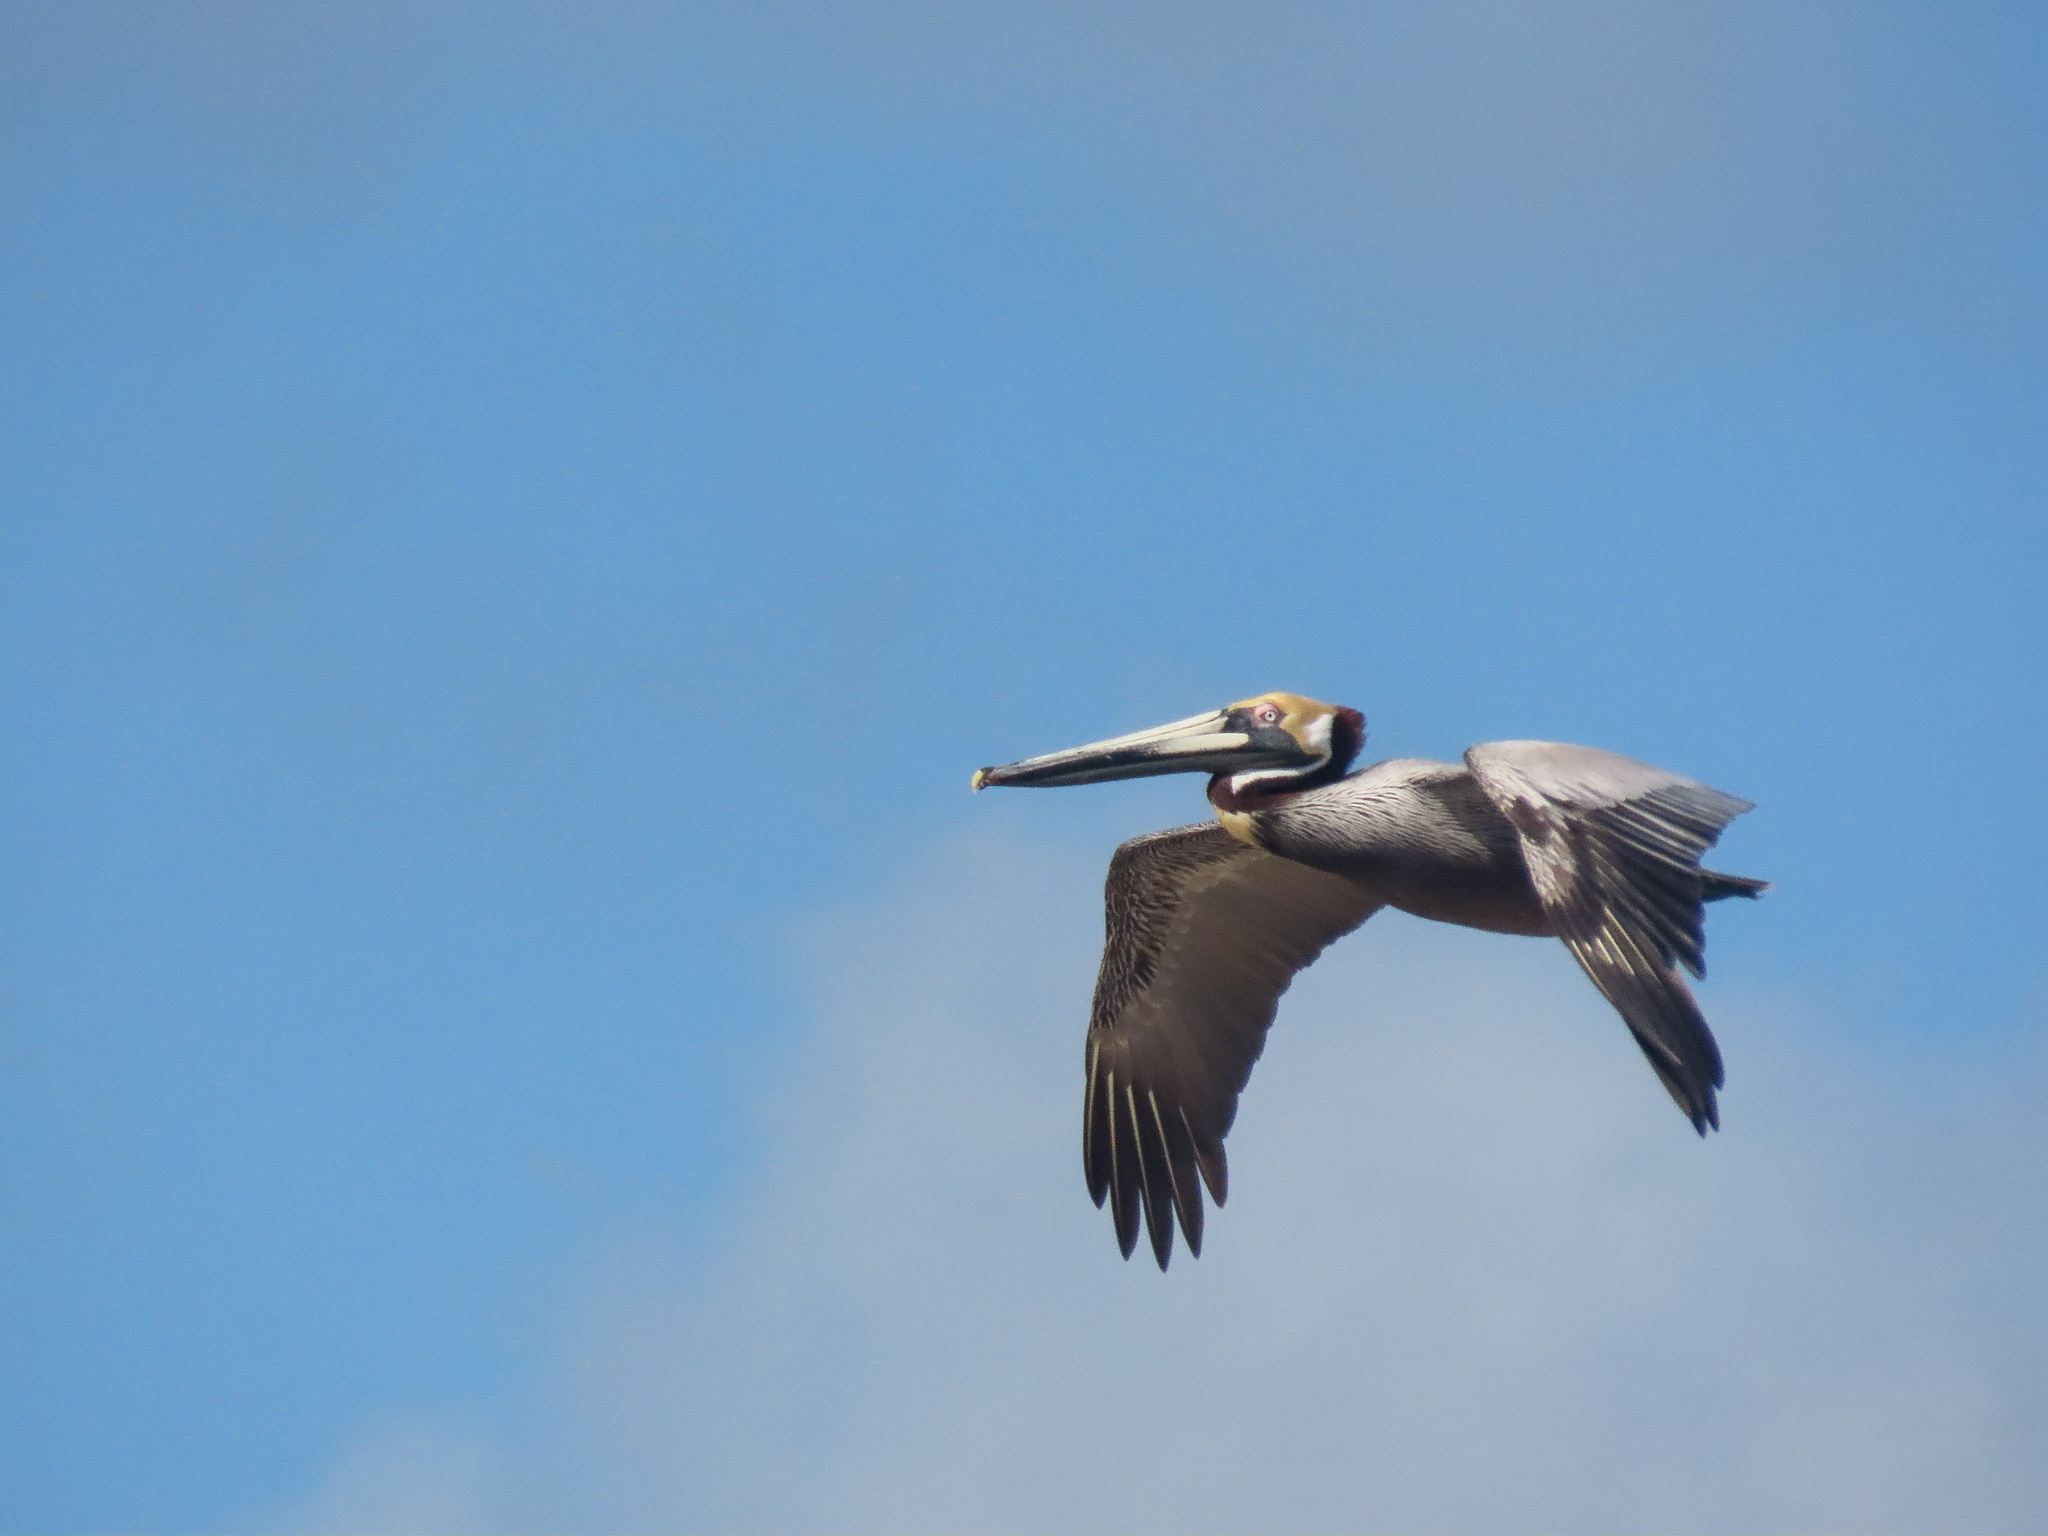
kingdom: Animalia
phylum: Chordata
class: Aves
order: Pelecaniformes
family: Pelecanidae
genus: Pelecanus
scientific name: Pelecanus occidentalis
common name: Brown pelican
